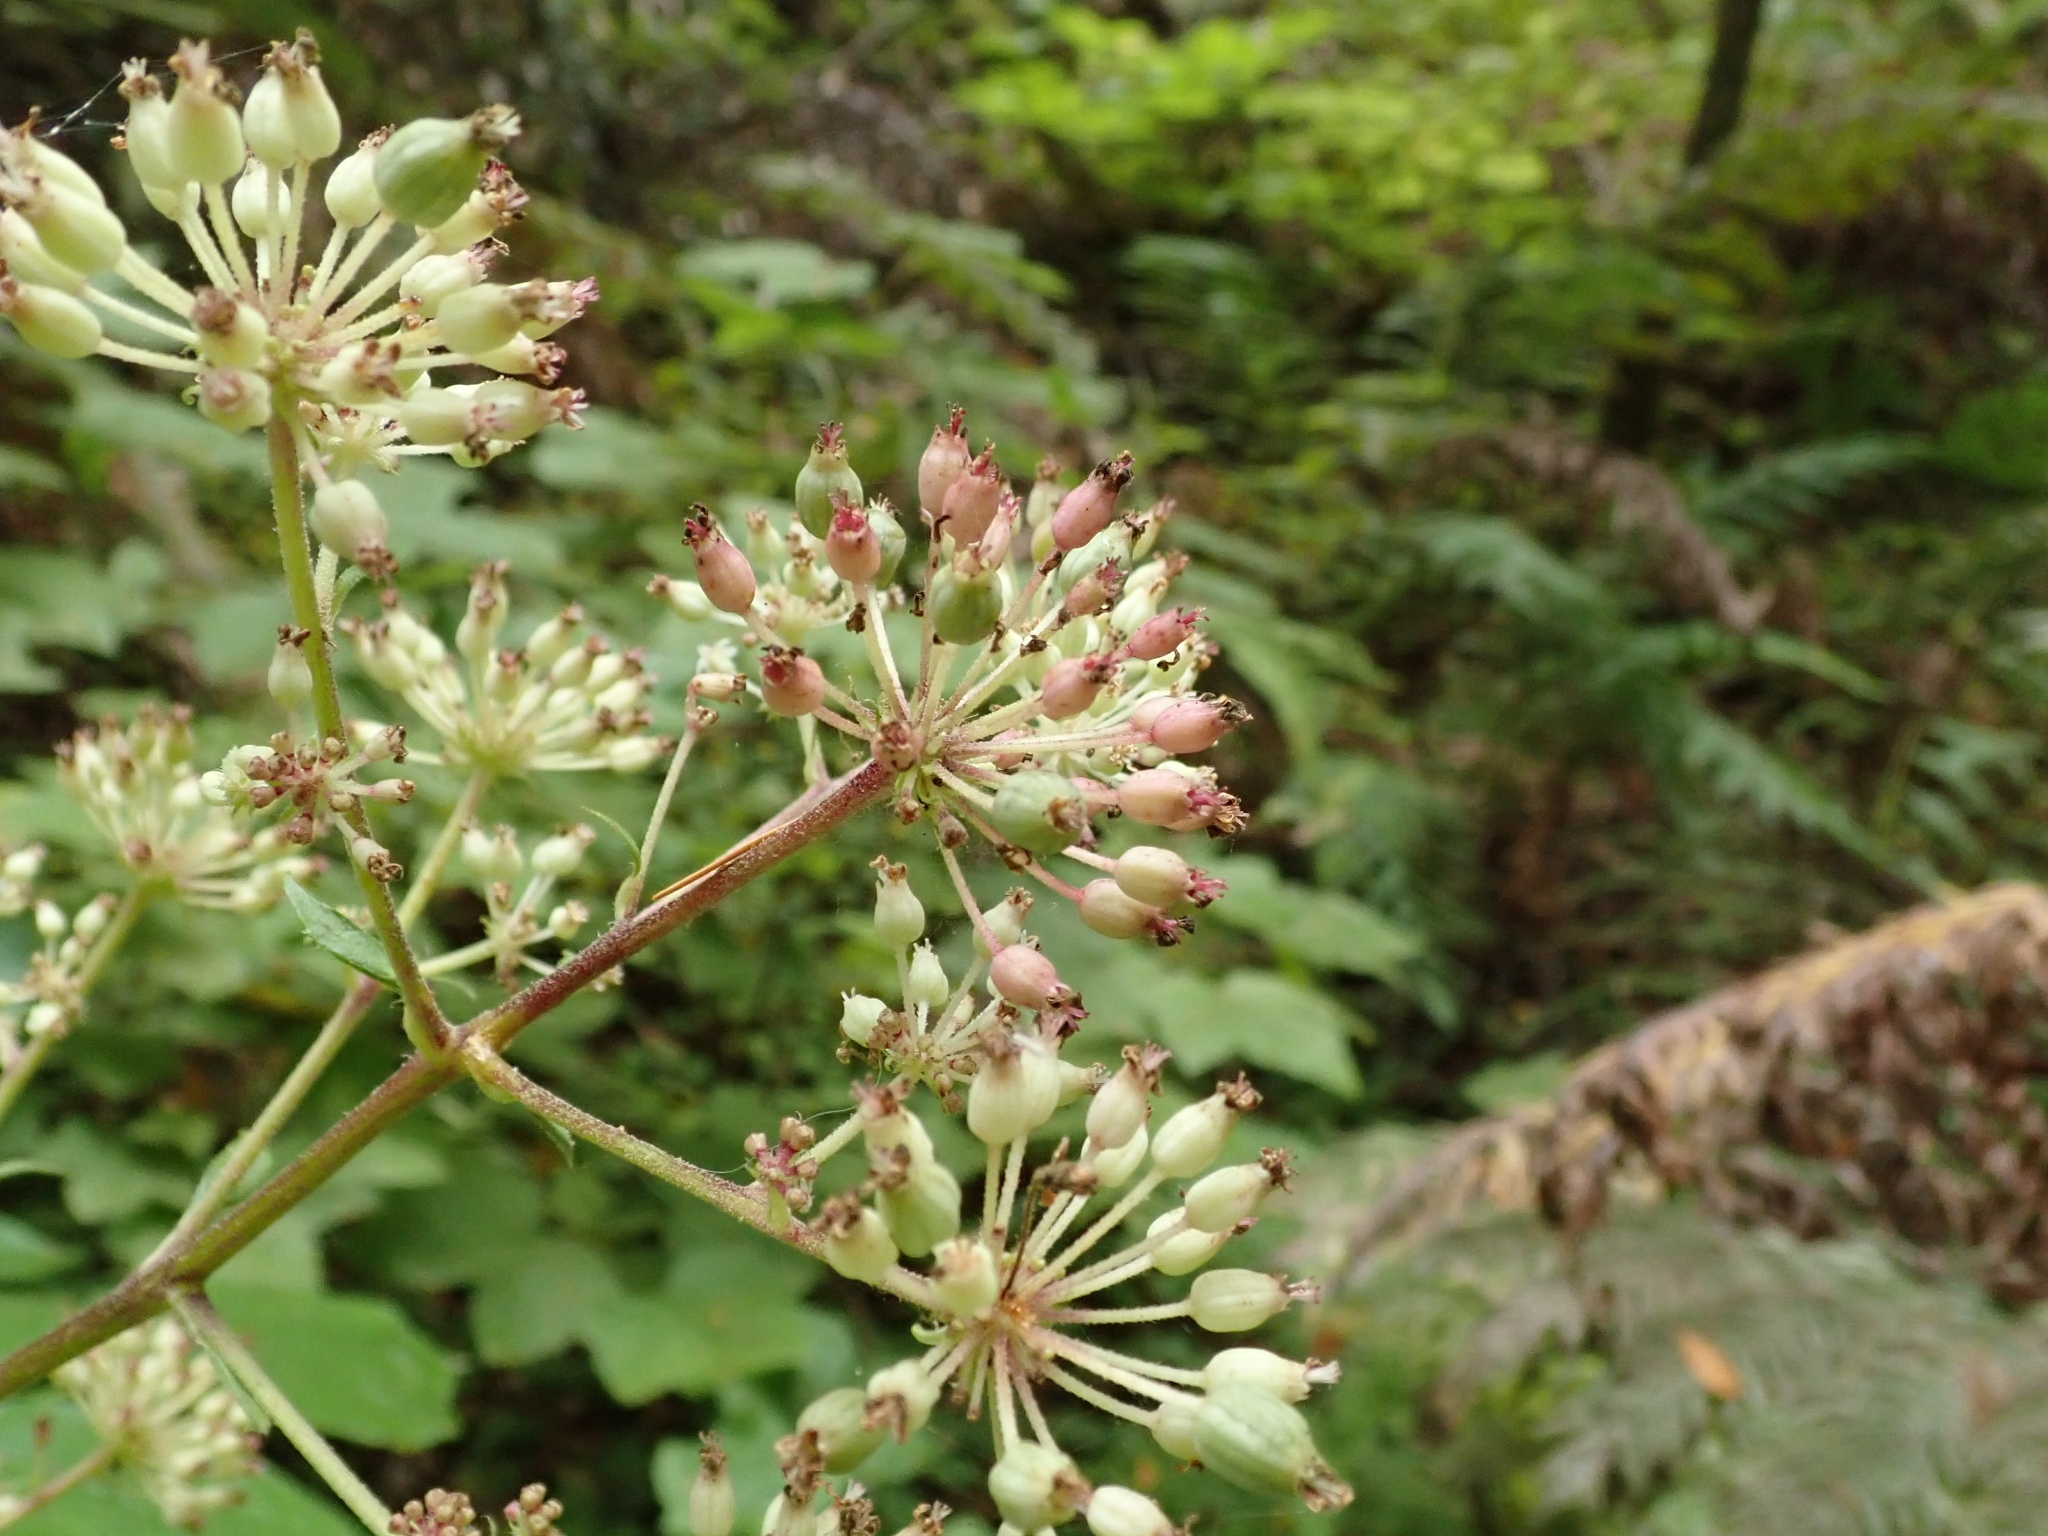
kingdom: Plantae
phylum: Tracheophyta
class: Magnoliopsida
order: Apiales
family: Araliaceae
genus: Aralia
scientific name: Aralia californica
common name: California-ginseng
